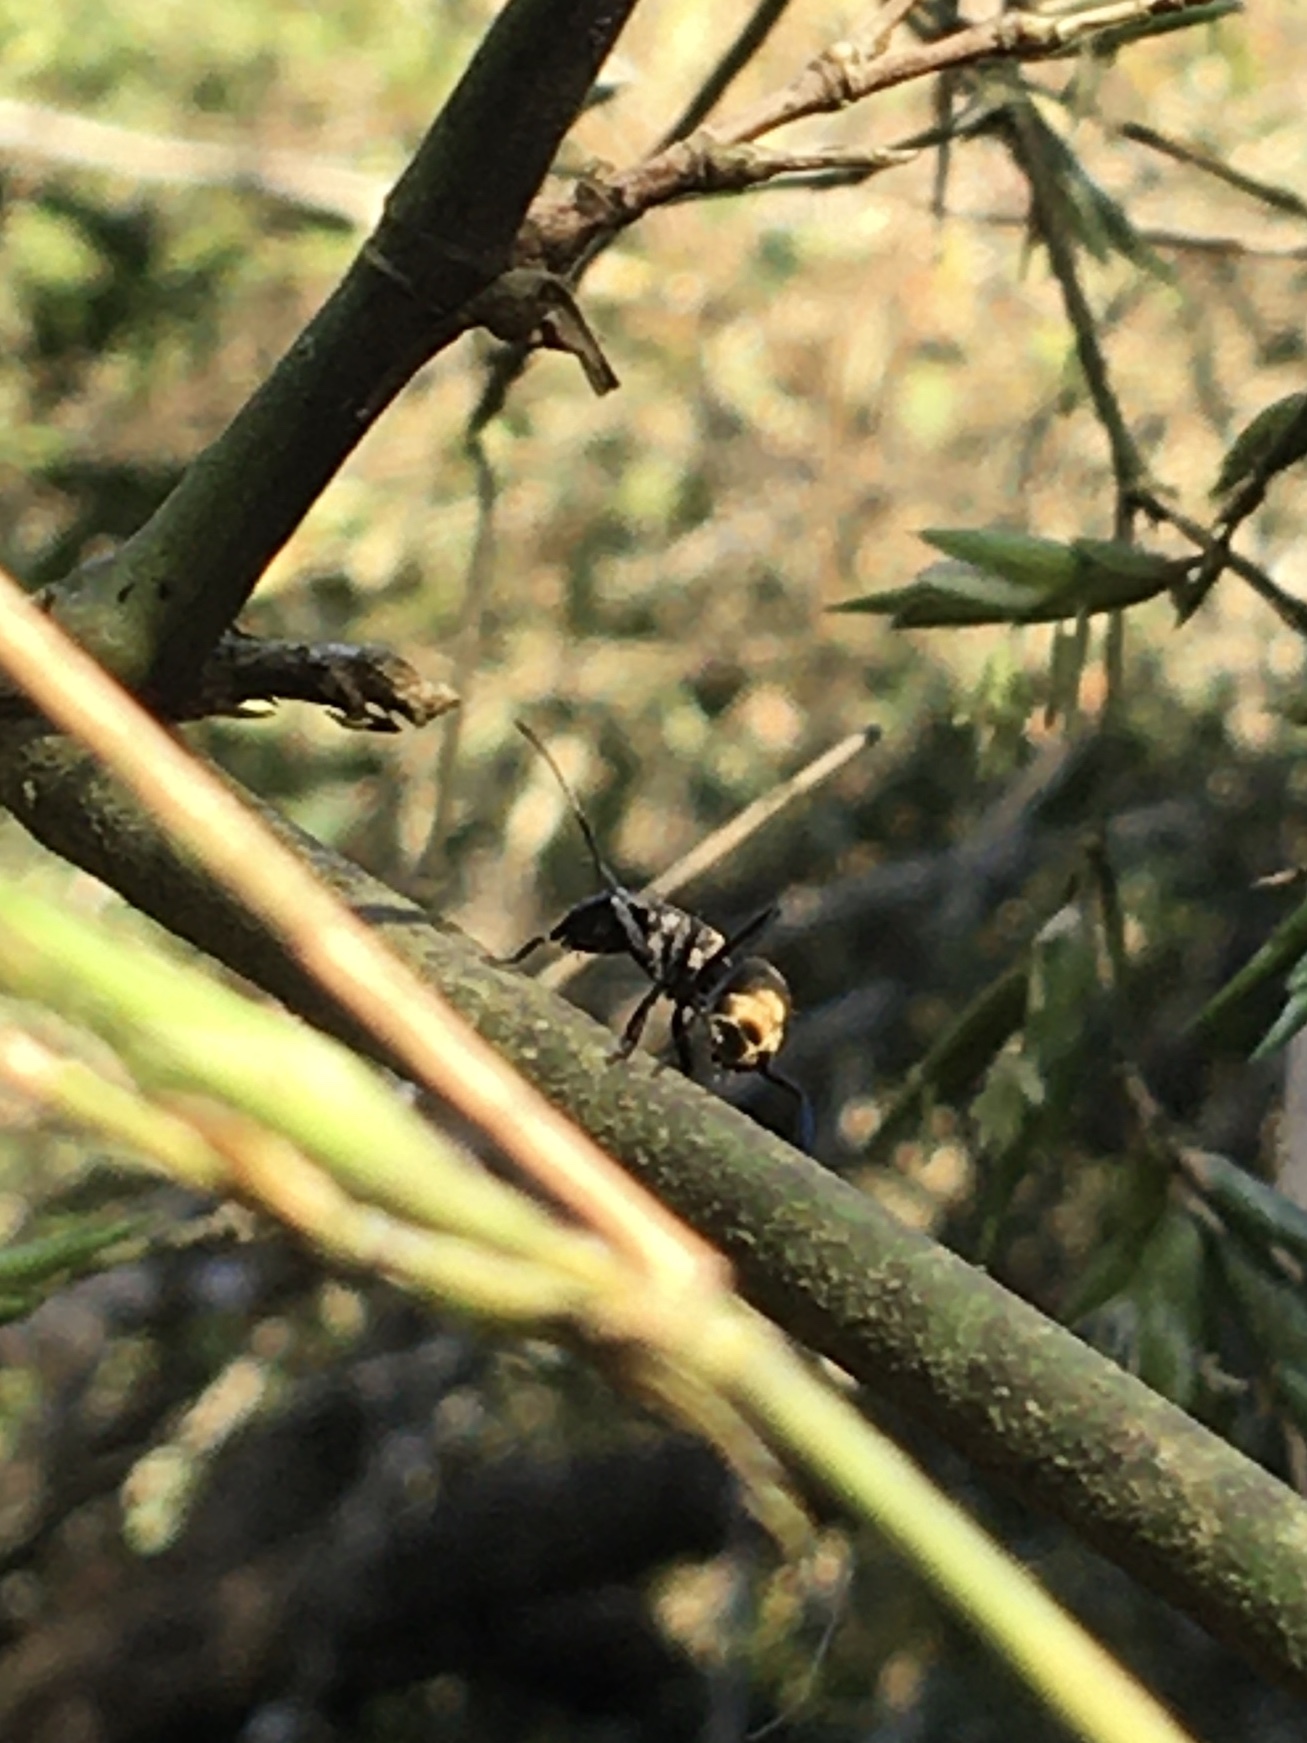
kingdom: Animalia
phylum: Arthropoda
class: Insecta
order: Hymenoptera
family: Formicidae
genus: Camponotus
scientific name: Camponotus sericeiventris
